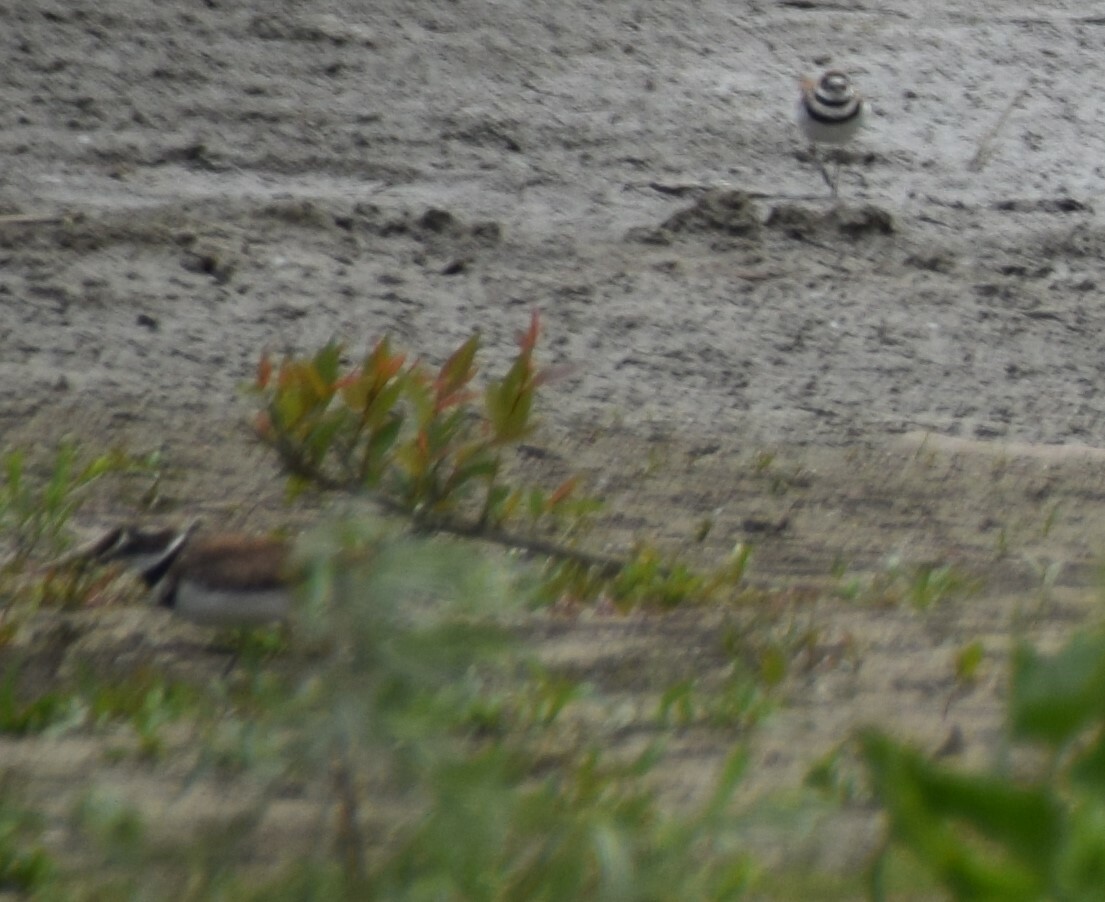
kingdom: Animalia
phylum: Chordata
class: Aves
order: Charadriiformes
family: Charadriidae
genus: Charadrius
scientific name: Charadrius vociferus
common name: Killdeer
